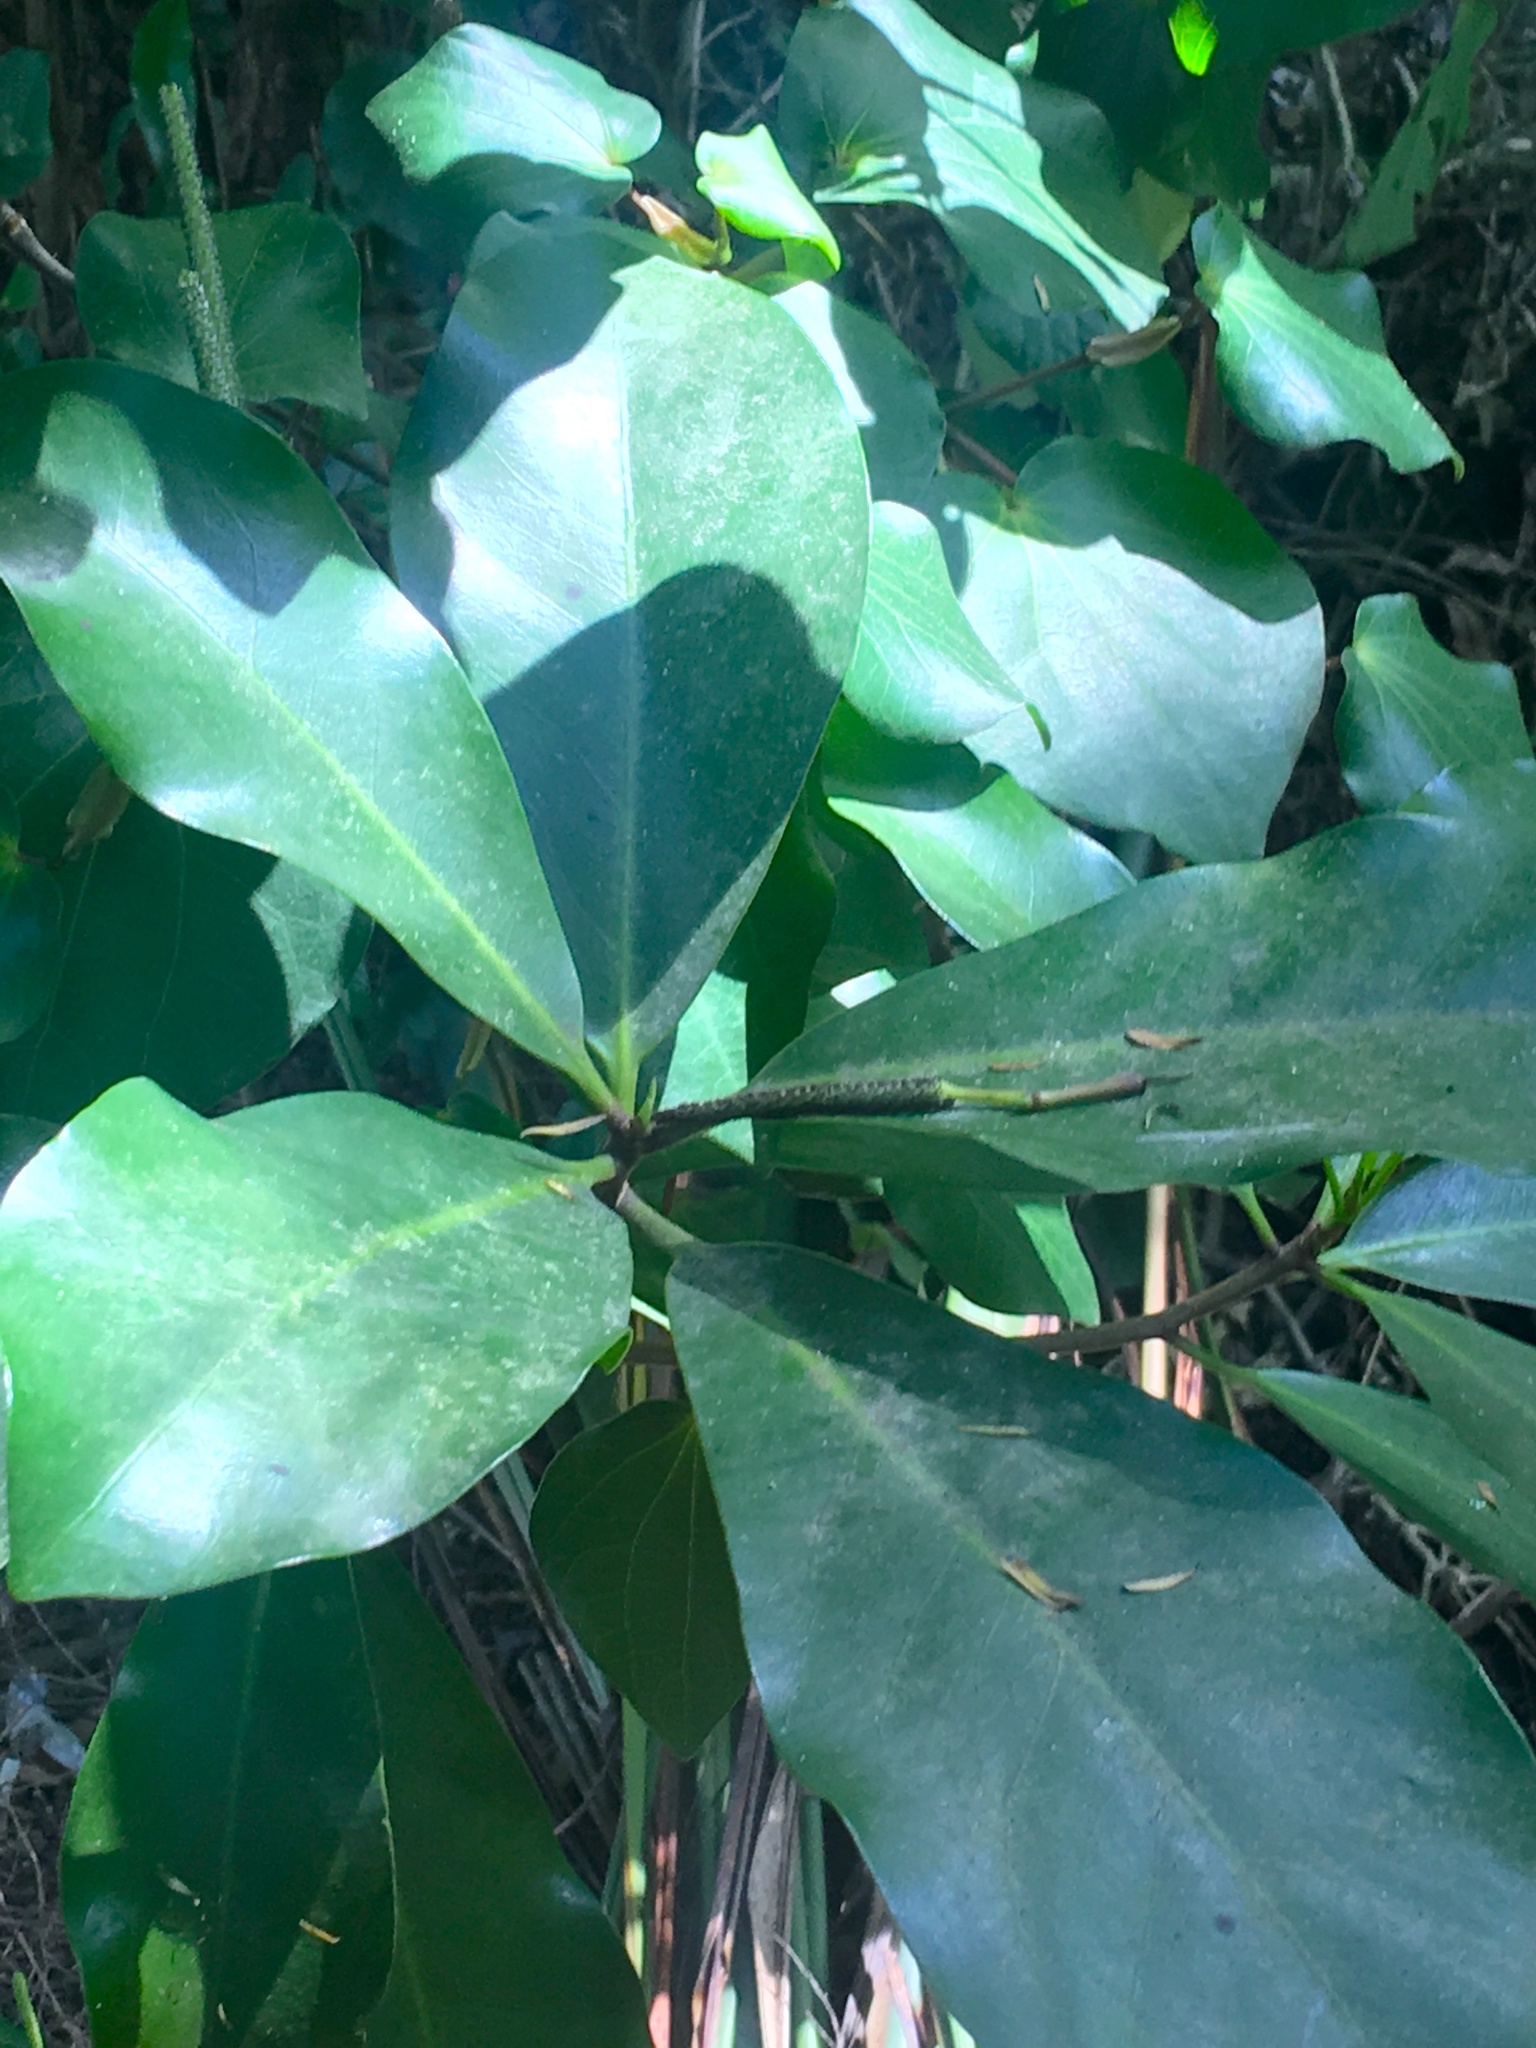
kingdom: Plantae
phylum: Tracheophyta
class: Magnoliopsida
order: Cucurbitales
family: Corynocarpaceae
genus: Corynocarpus
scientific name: Corynocarpus laevigatus
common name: New zealand laurel
